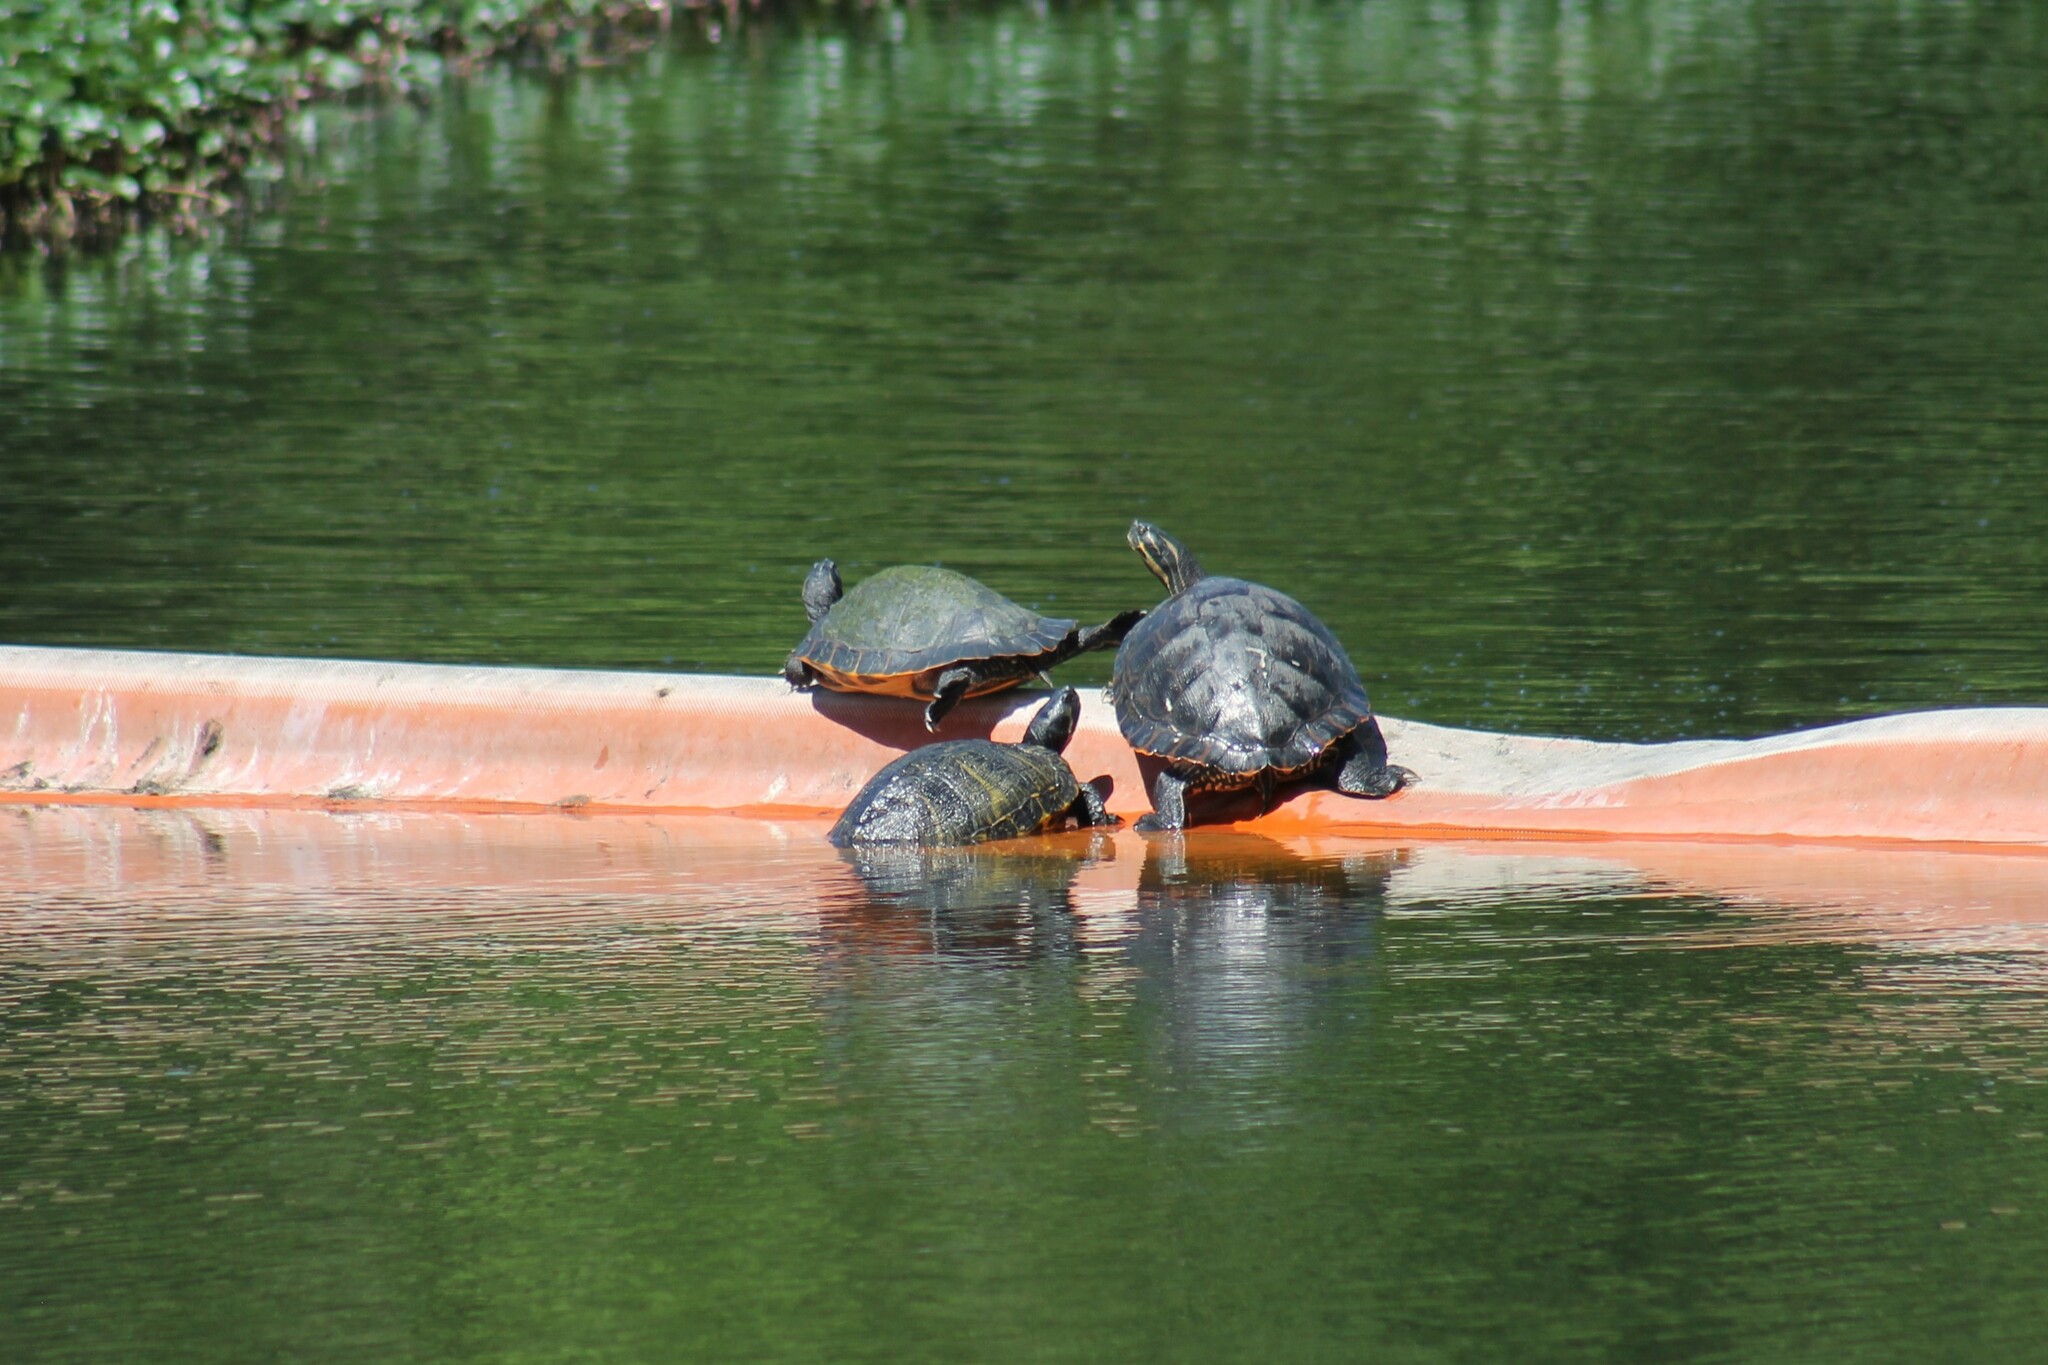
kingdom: Animalia
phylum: Chordata
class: Testudines
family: Emydidae
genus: Pseudemys
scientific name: Pseudemys concinna
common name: Eastern river cooter
